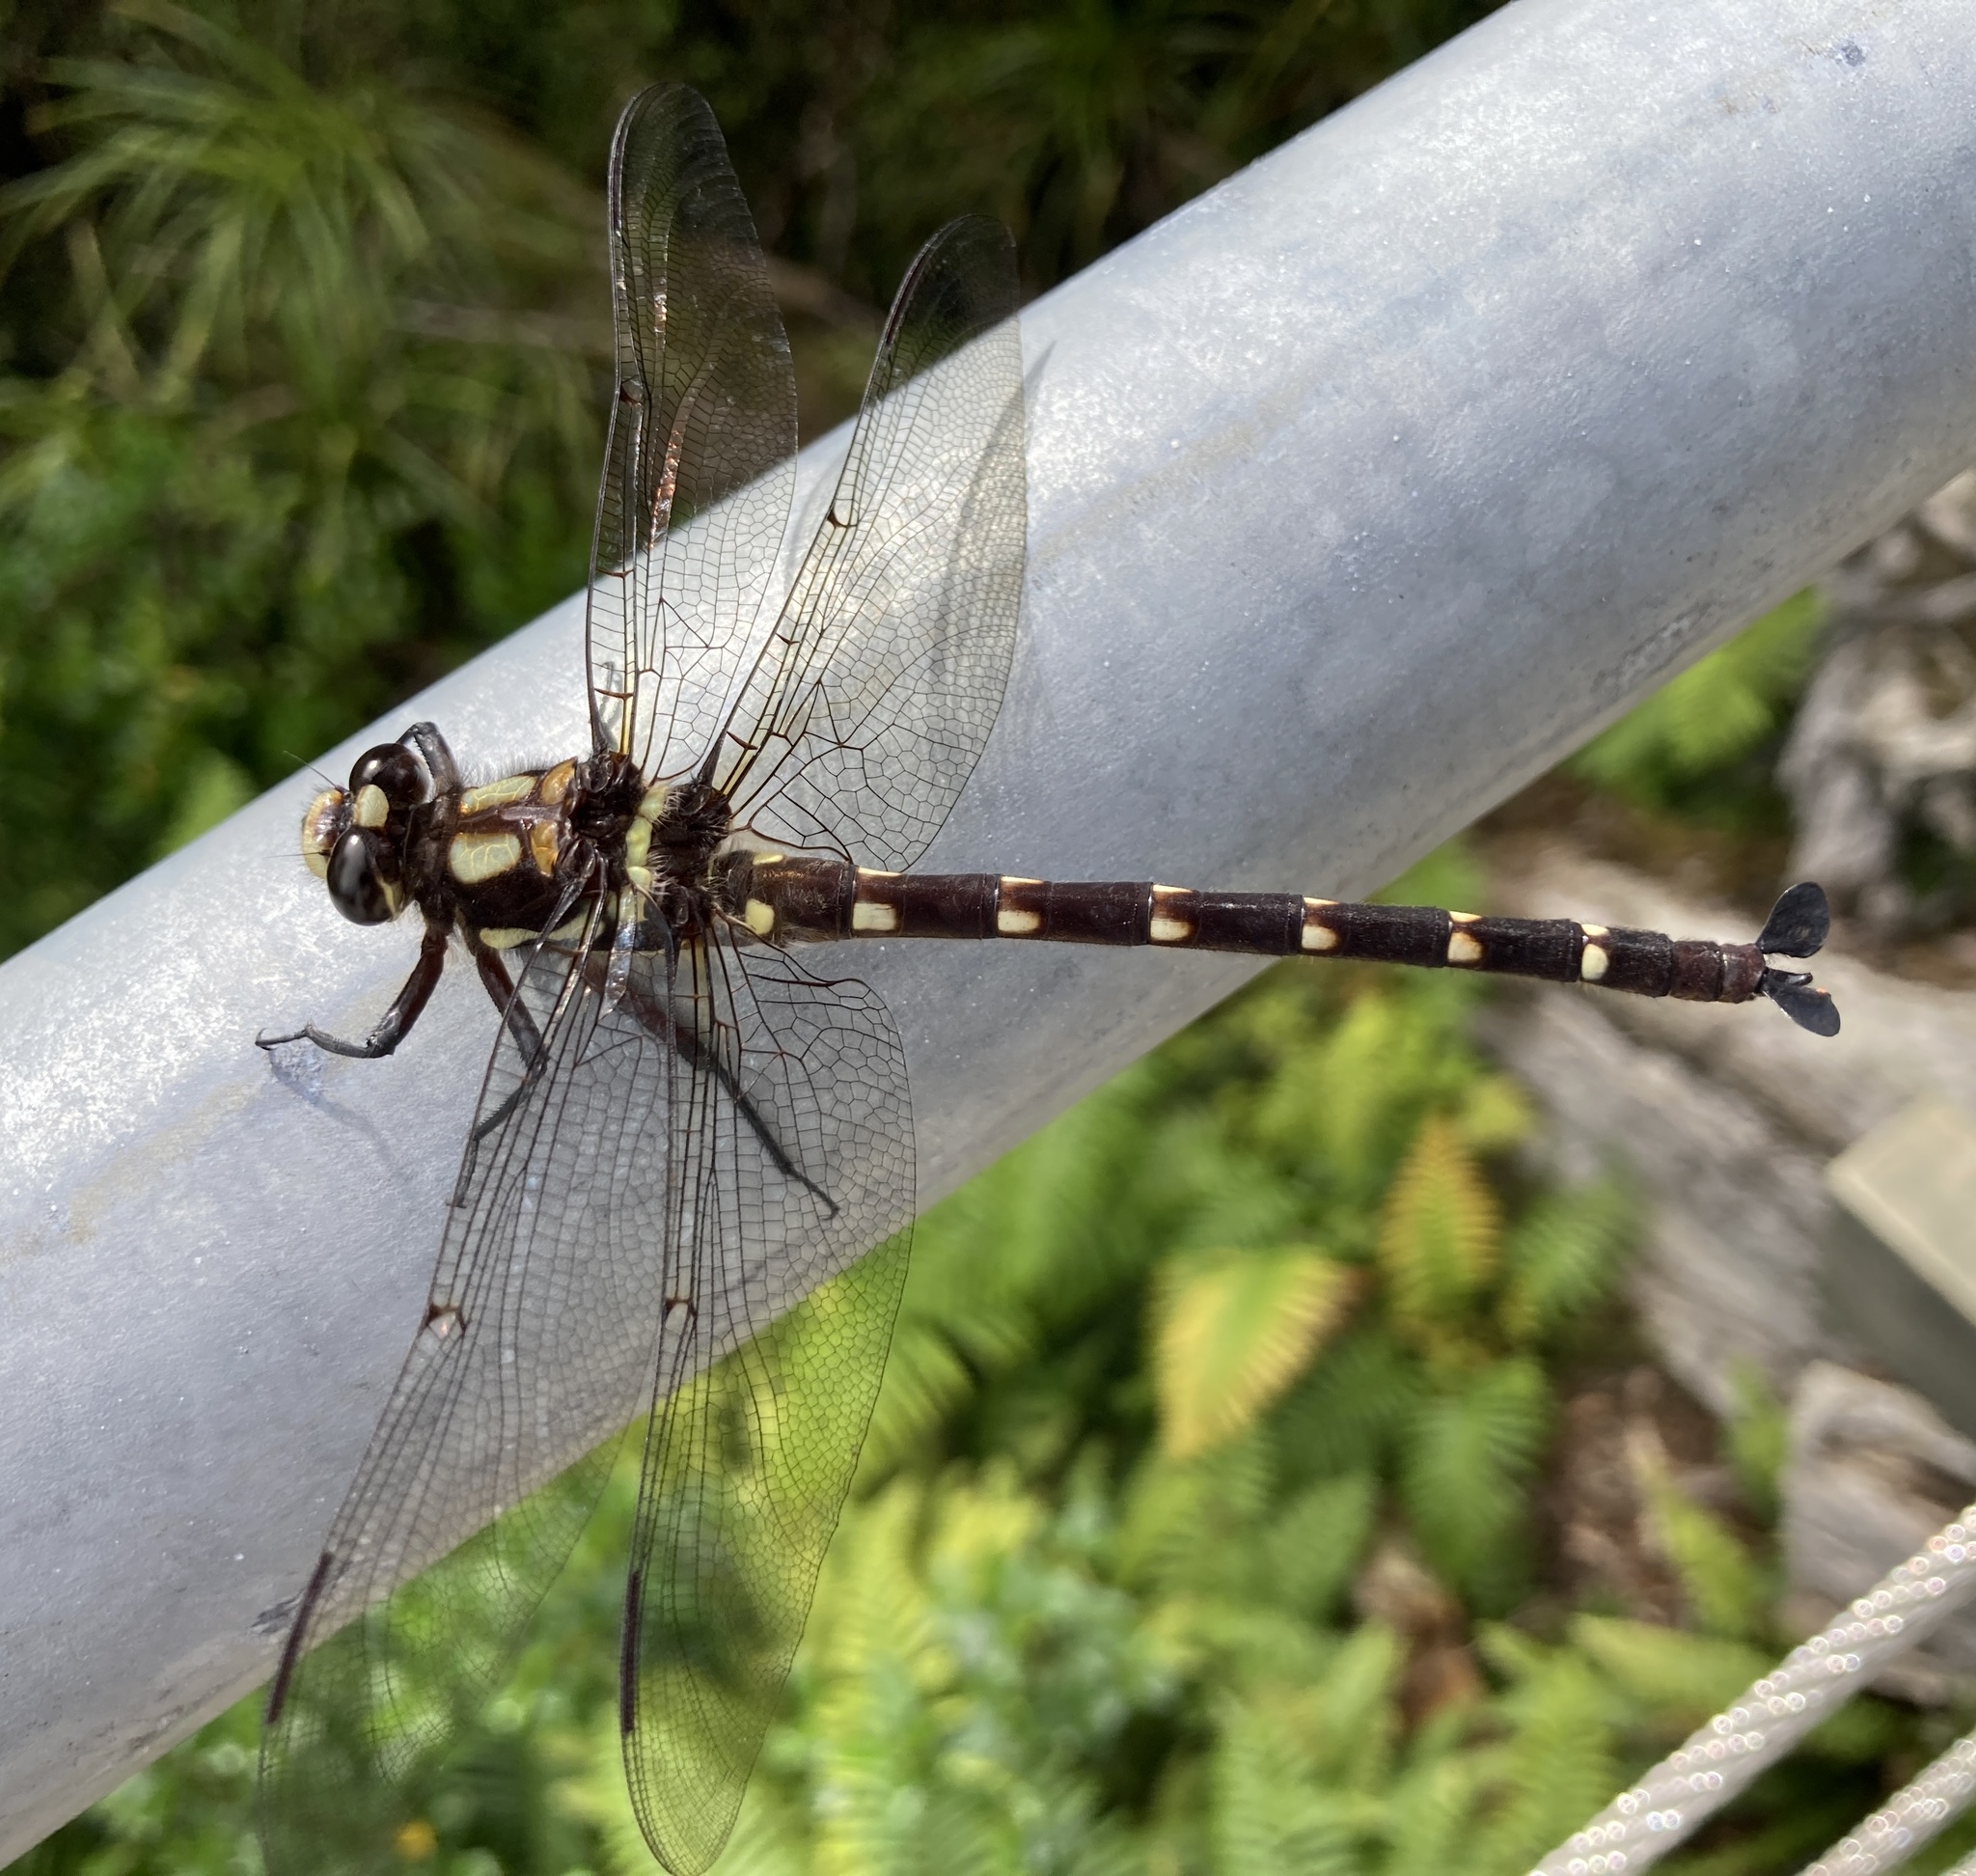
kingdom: Animalia
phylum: Arthropoda
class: Insecta
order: Odonata
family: Petaluridae
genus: Uropetala
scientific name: Uropetala carovei
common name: Bush giant dragonfly
